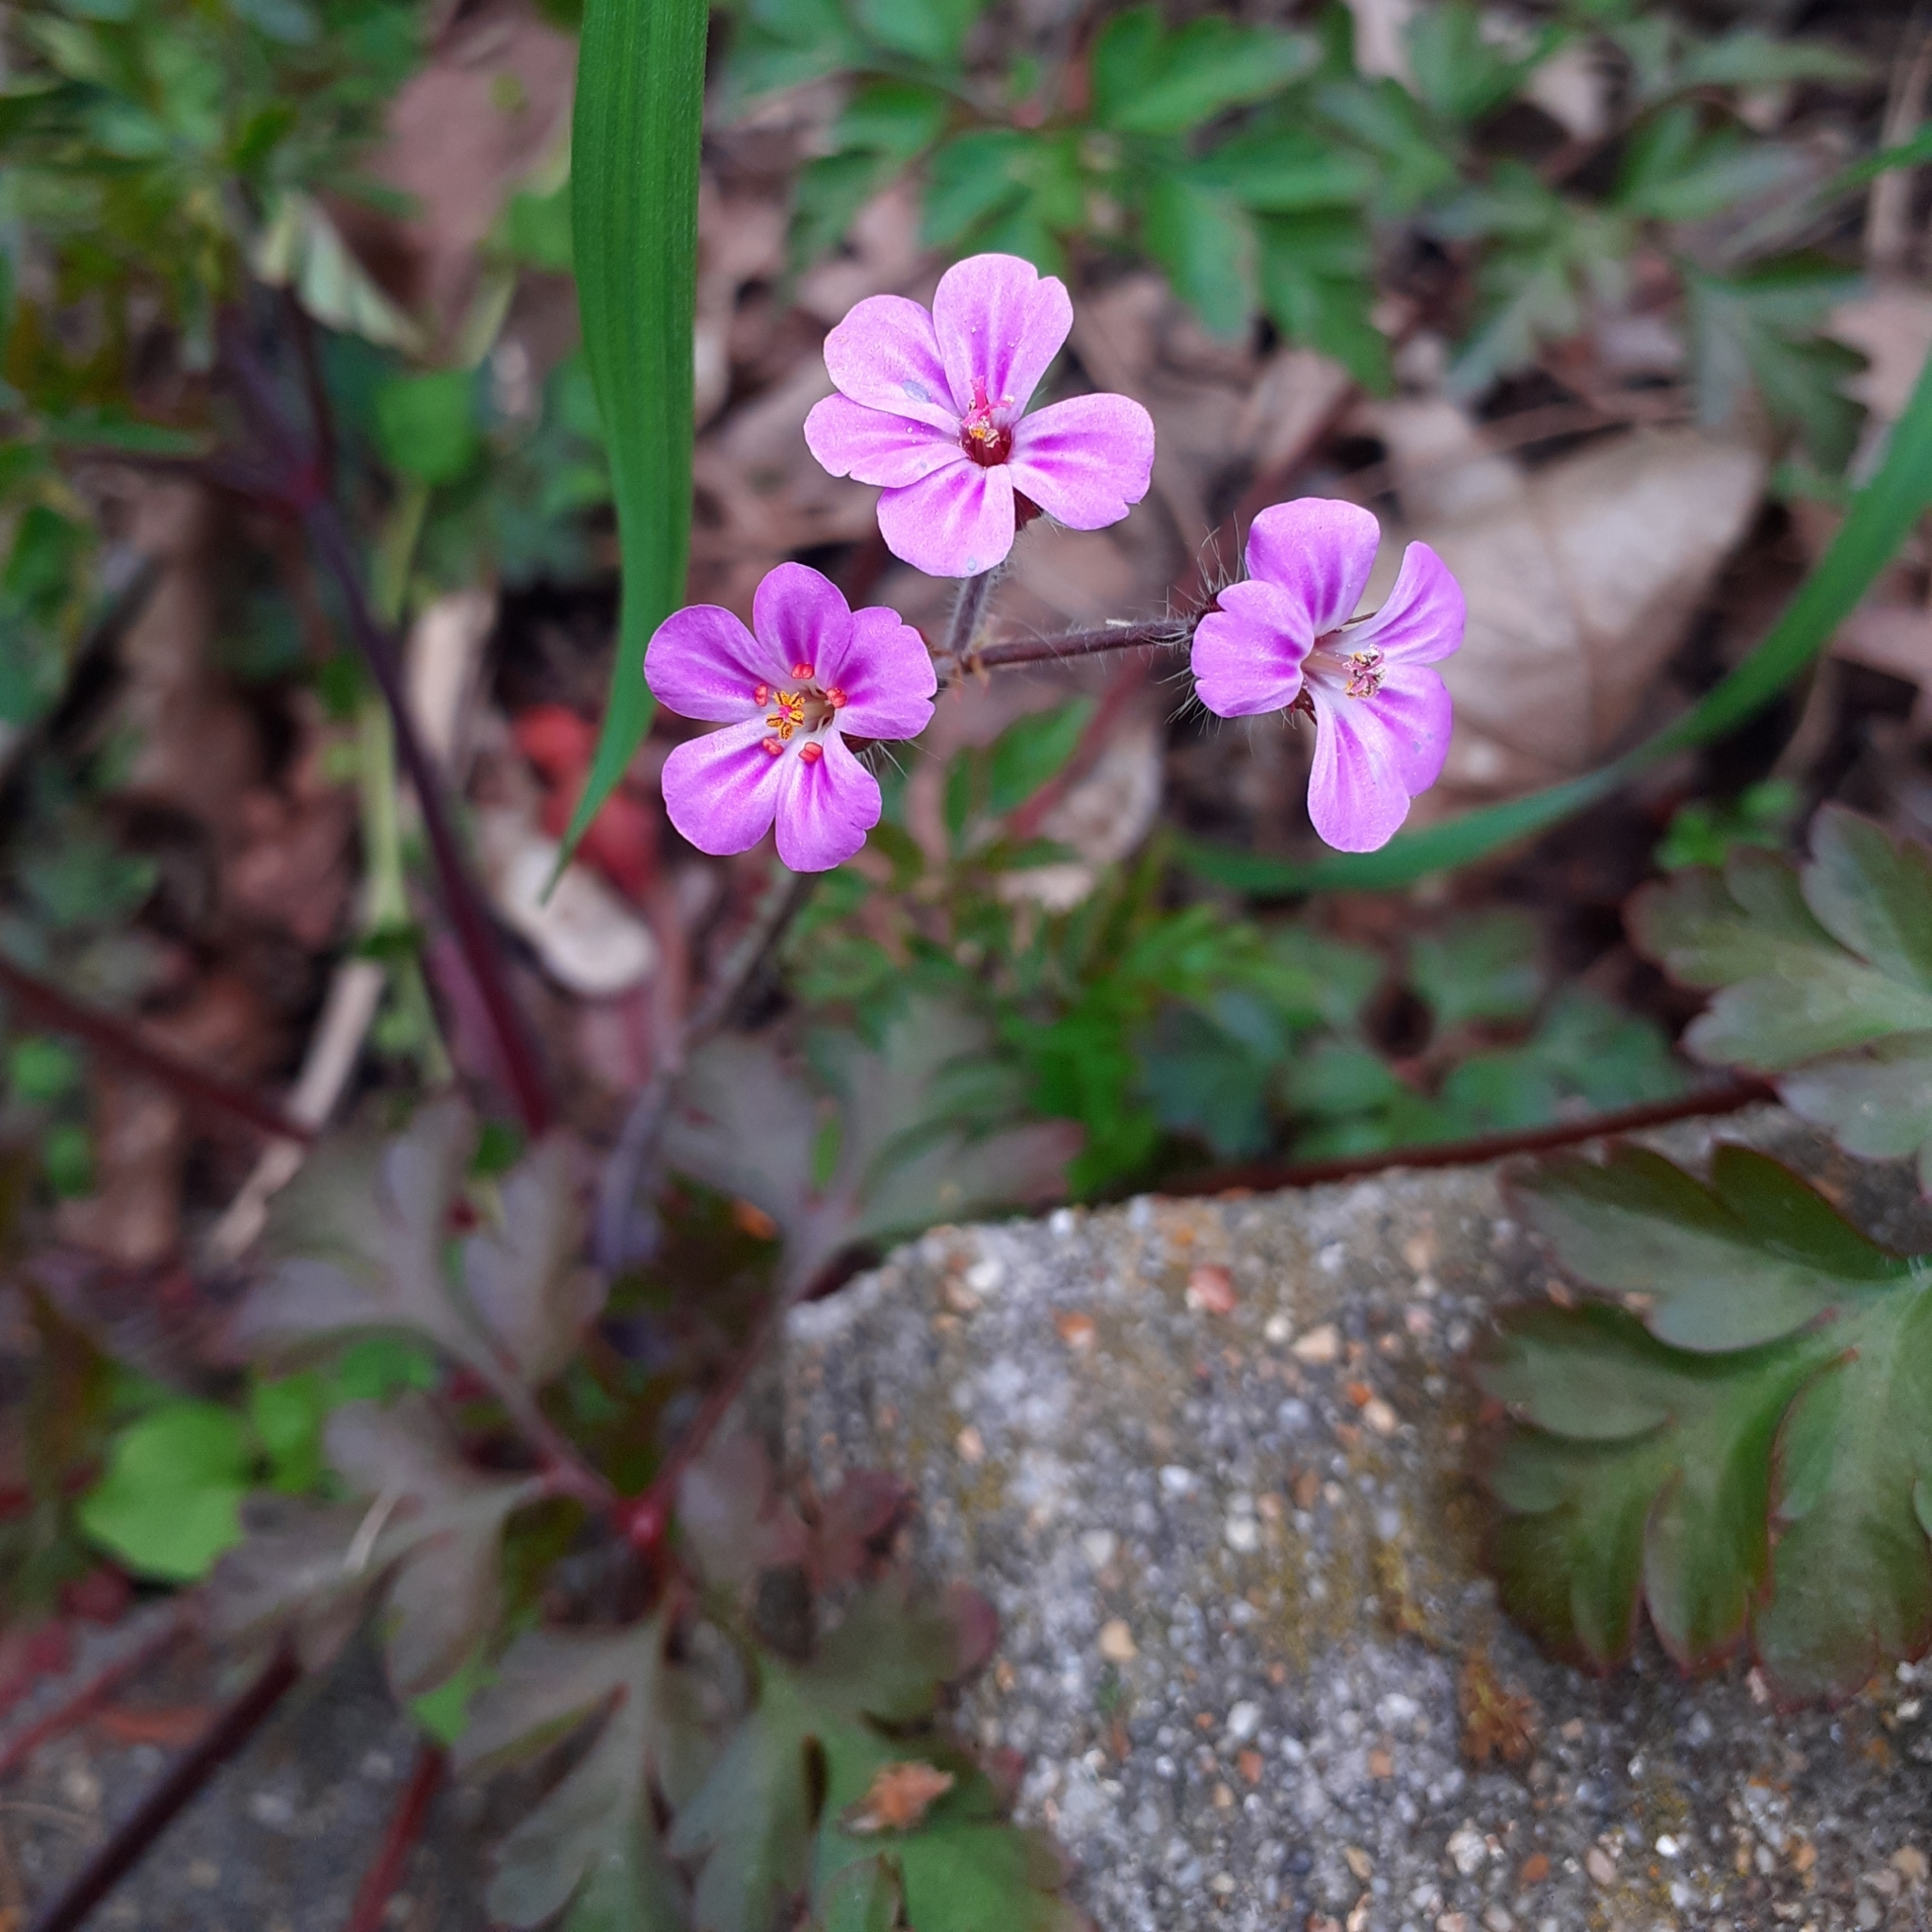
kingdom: Plantae
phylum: Tracheophyta
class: Magnoliopsida
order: Geraniales
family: Geraniaceae
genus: Geranium
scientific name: Geranium robertianum
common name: Herb-robert
